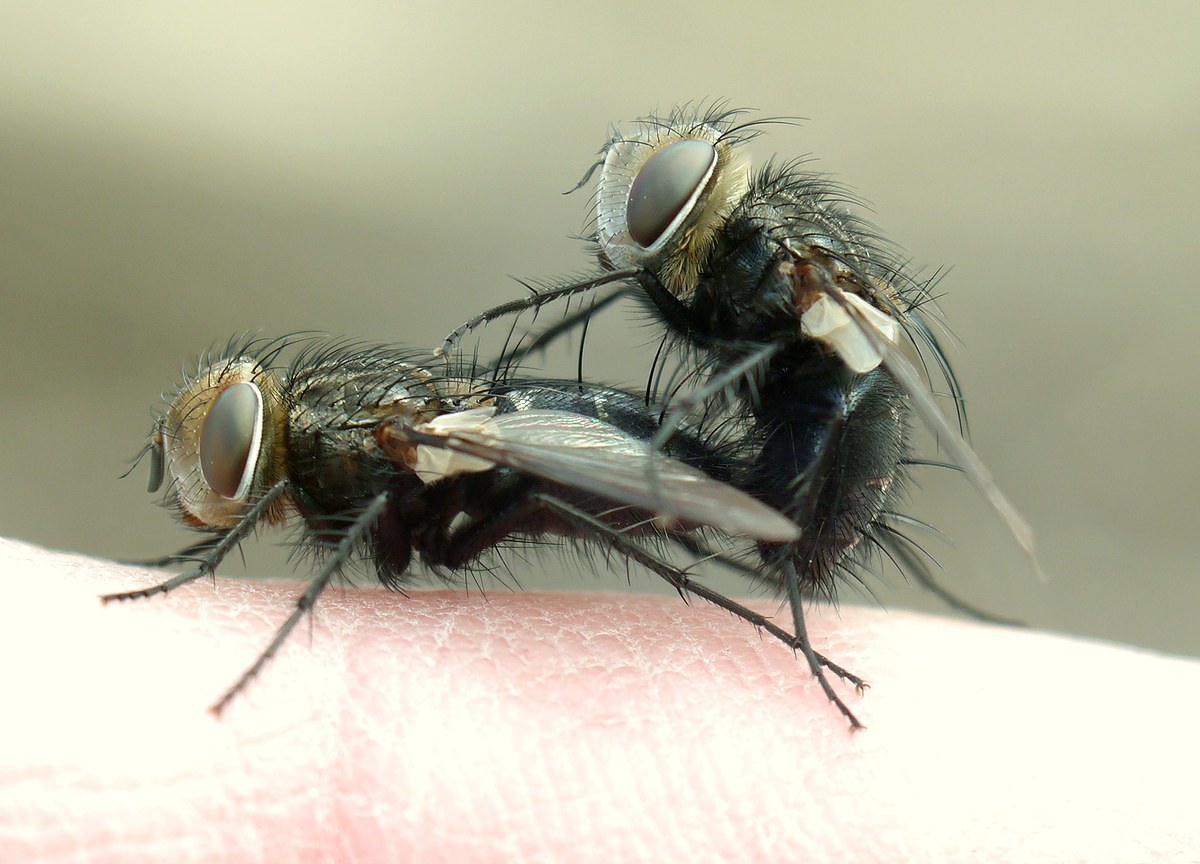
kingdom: Animalia
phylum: Arthropoda
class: Insecta
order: Diptera
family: Tachinidae
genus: Gonia
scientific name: Gonia picea
